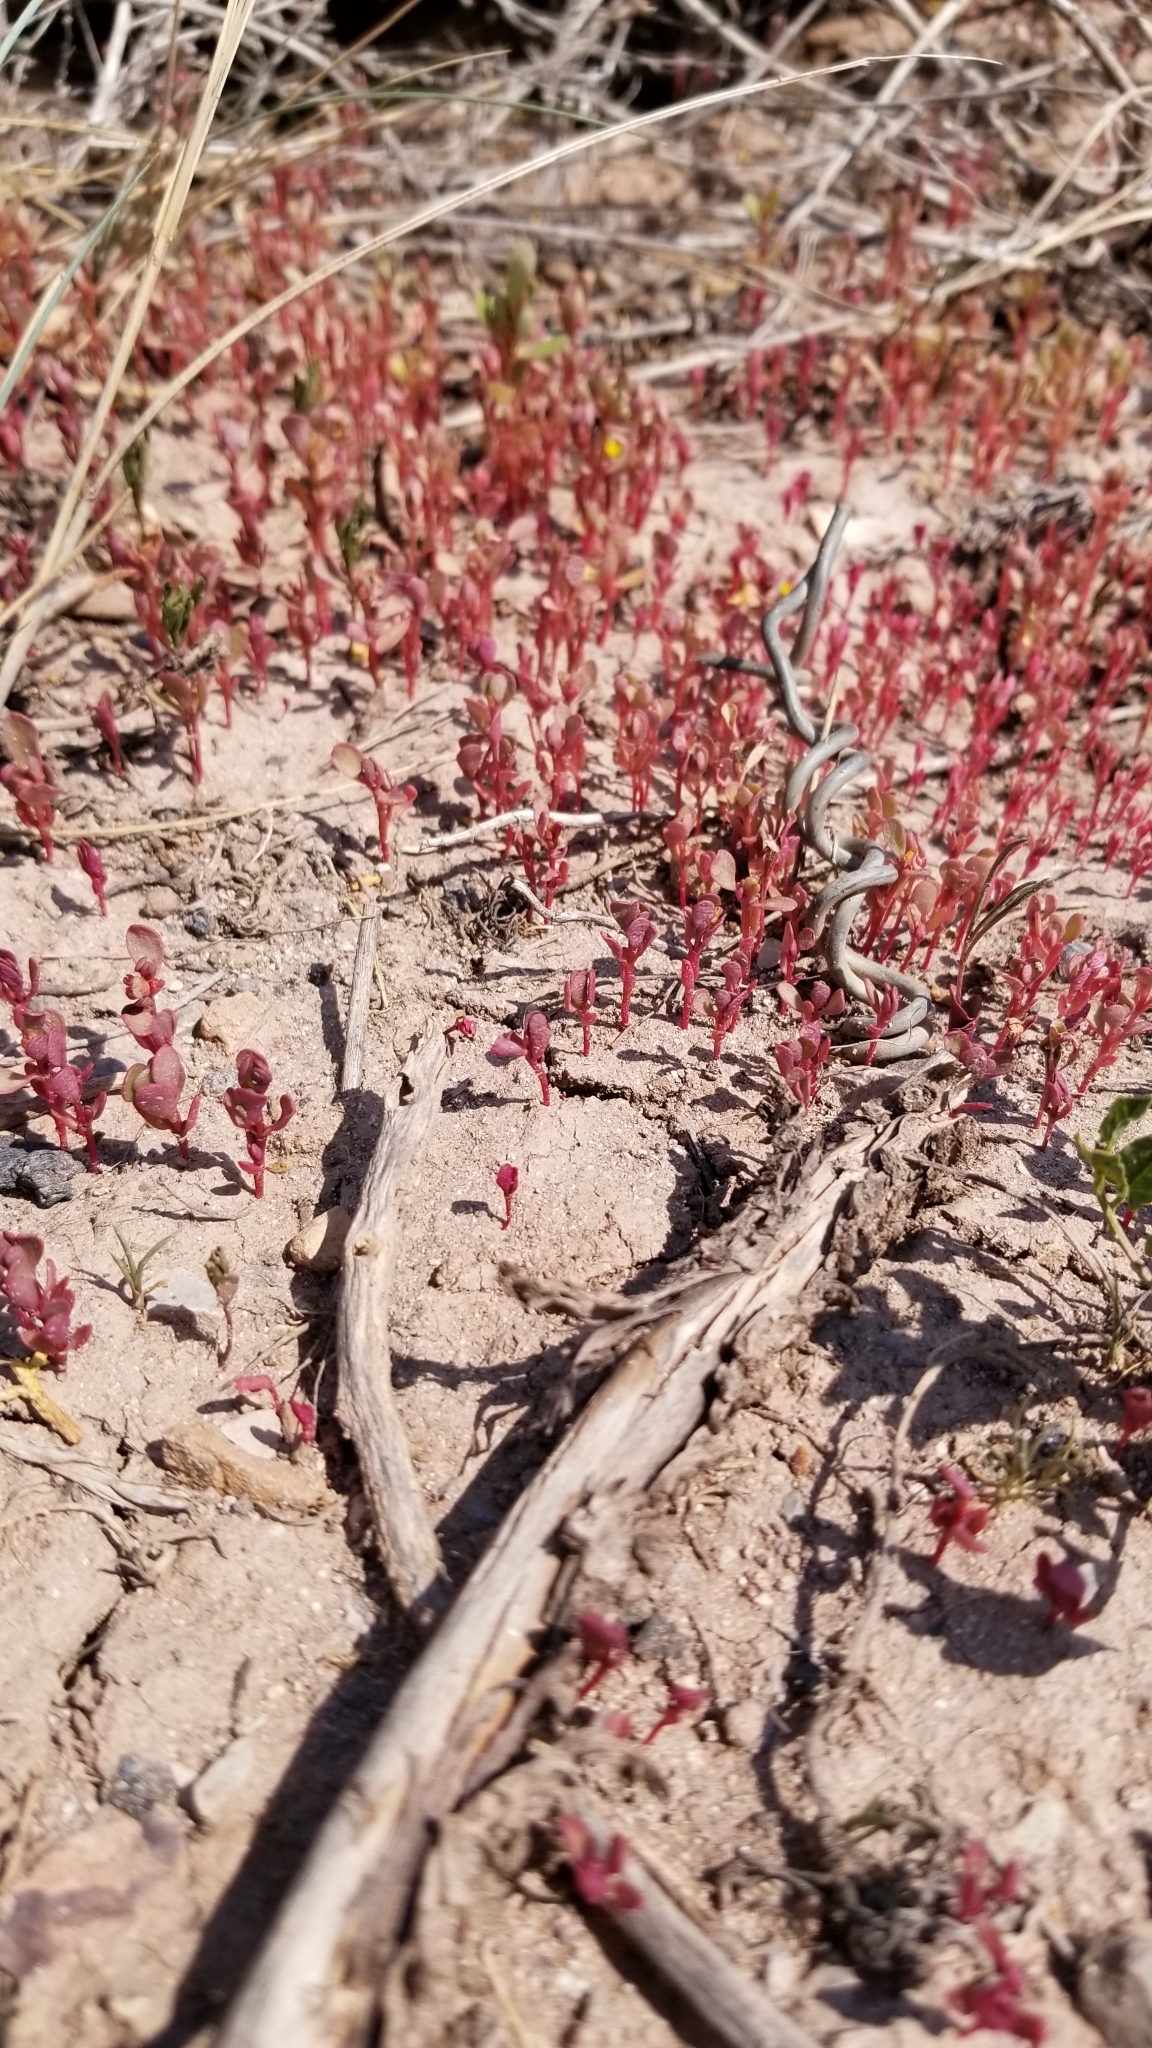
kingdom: Plantae
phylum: Tracheophyta
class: Magnoliopsida
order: Caryophyllales
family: Portulacaceae
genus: Portulaca
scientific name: Portulaca oleracea
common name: Common purslane
